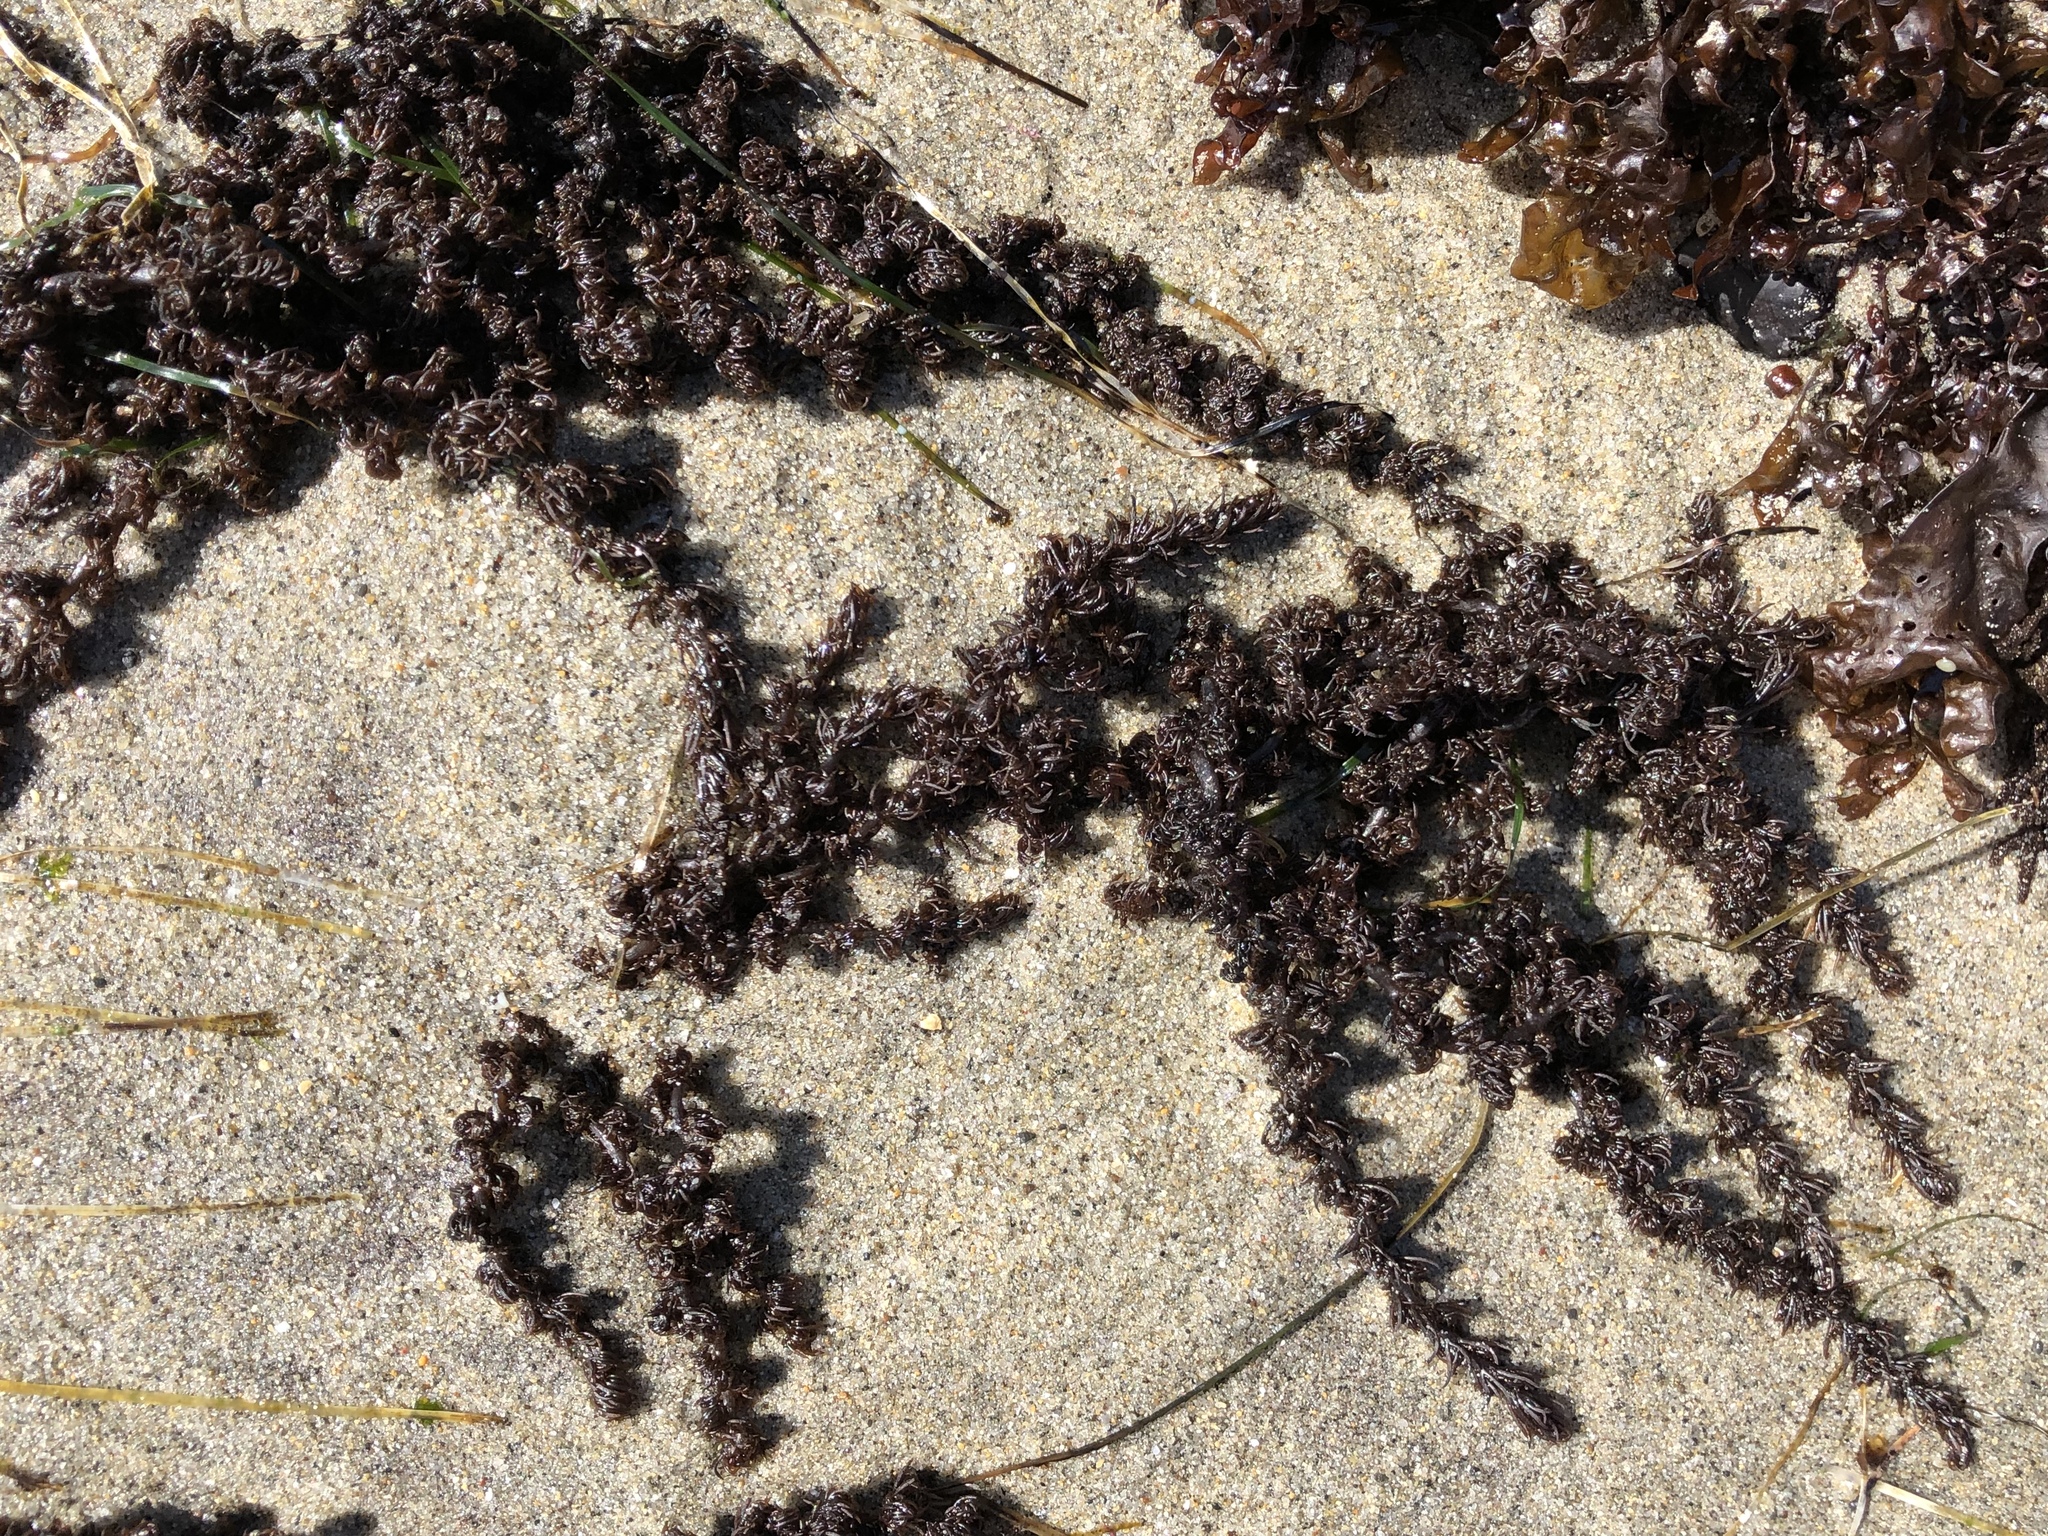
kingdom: Plantae
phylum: Rhodophyta
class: Florideophyceae
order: Ceramiales
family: Rhodomelaceae
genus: Neorhodomela
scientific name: Neorhodomela larix
